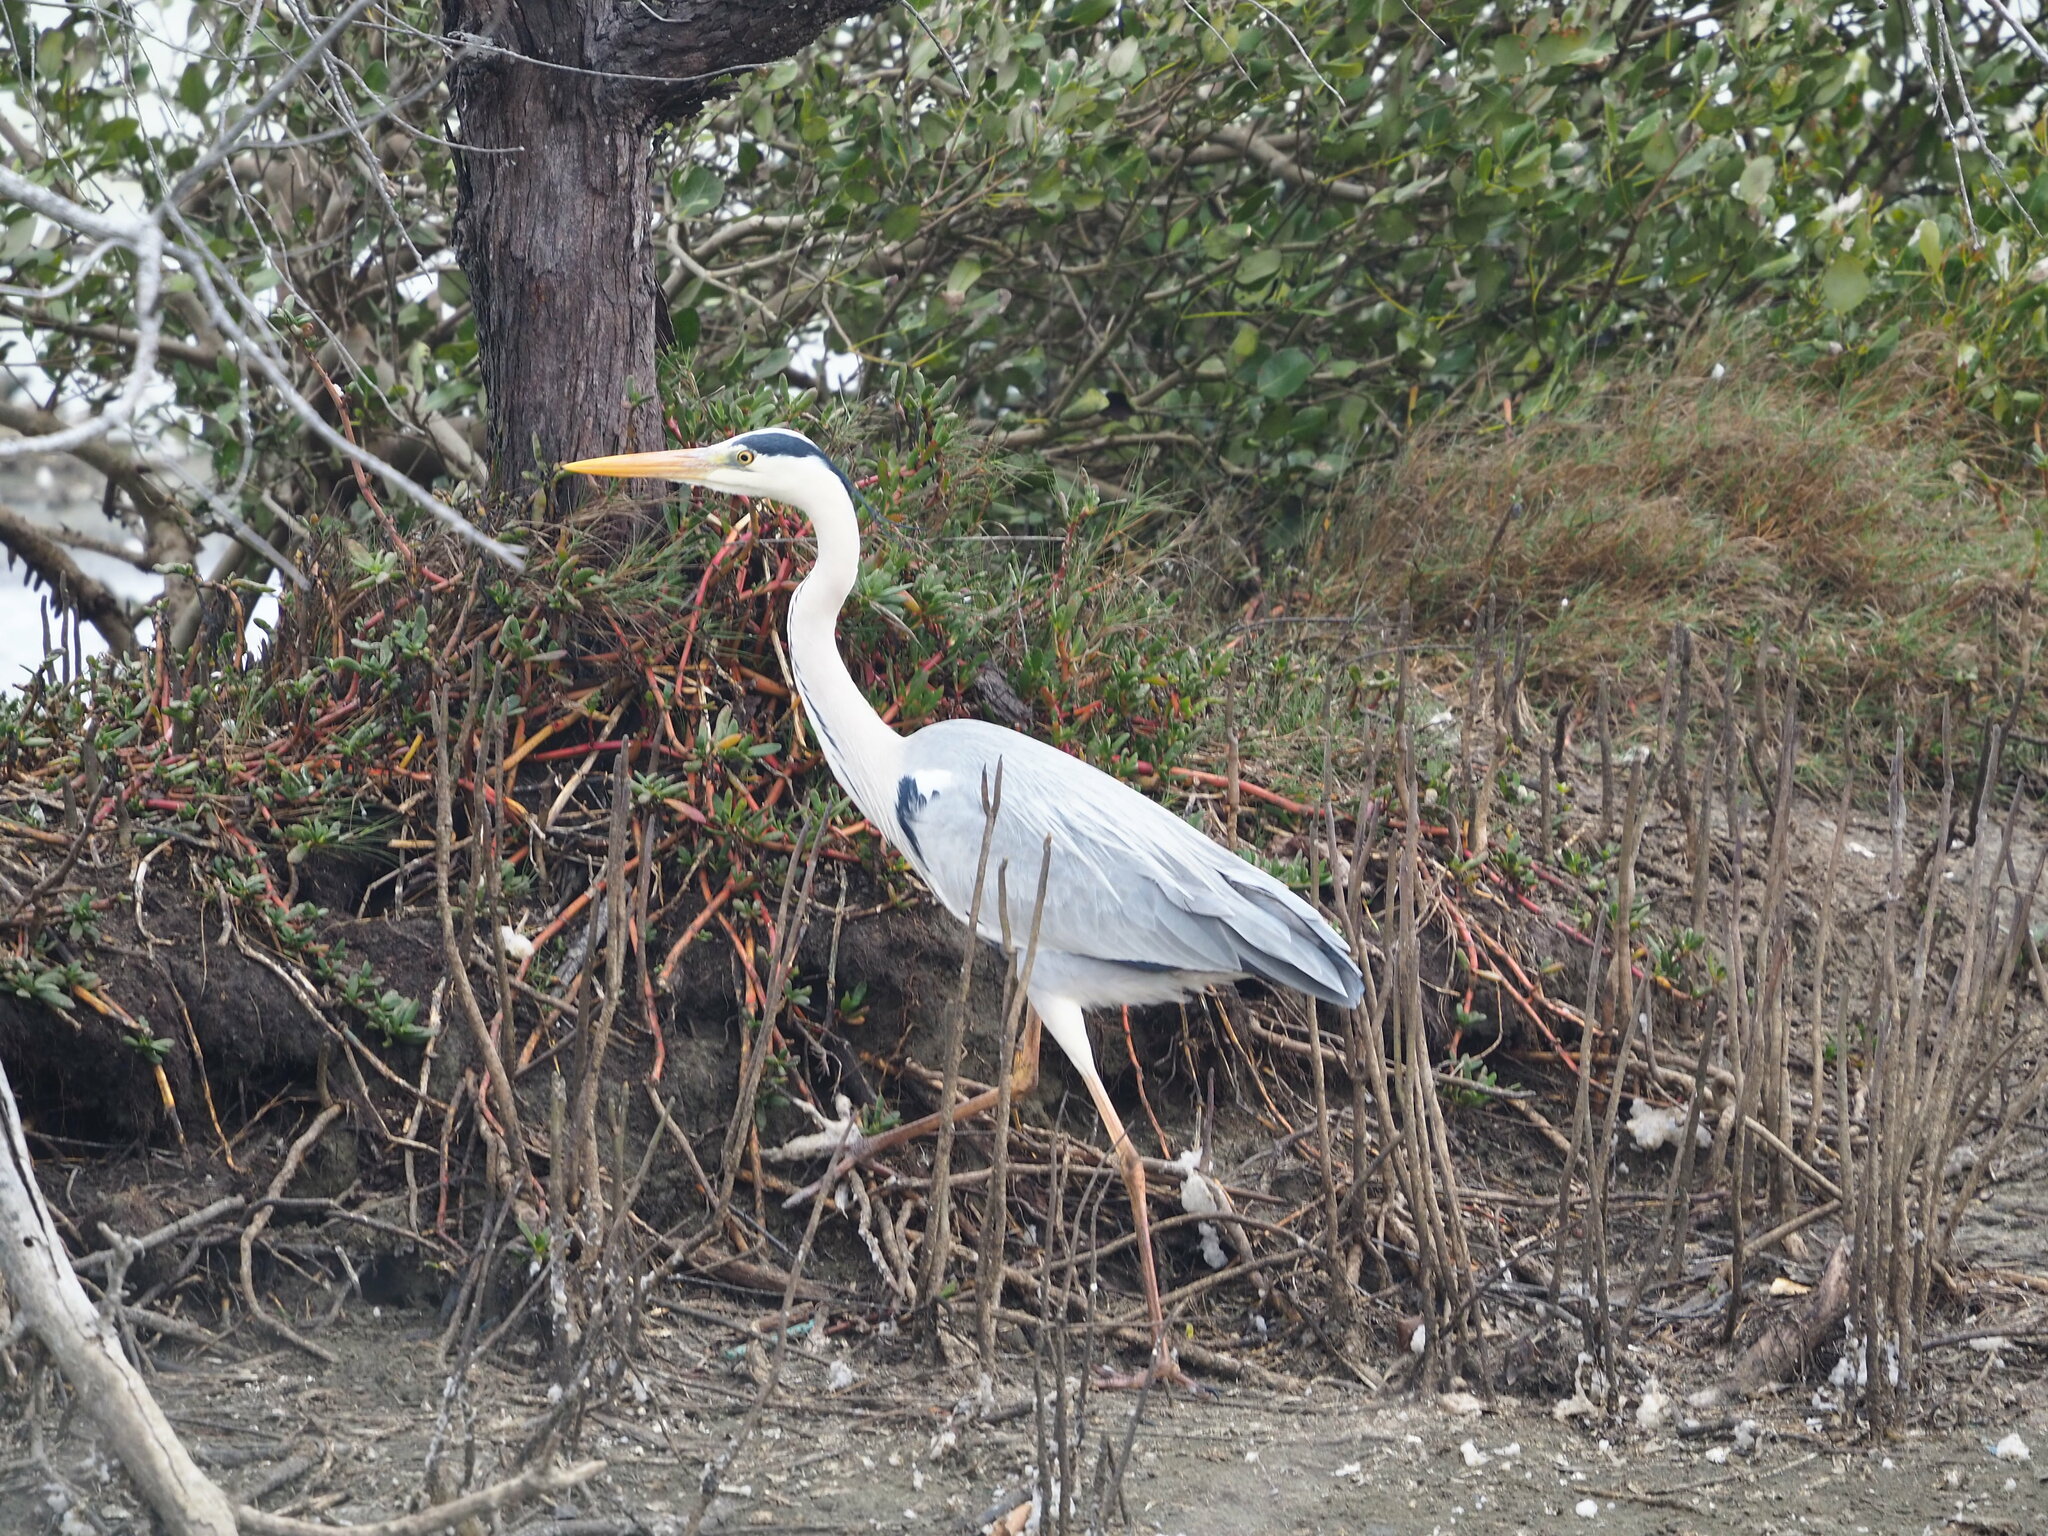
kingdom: Animalia
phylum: Chordata
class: Aves
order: Pelecaniformes
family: Ardeidae
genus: Ardea
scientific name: Ardea cinerea
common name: Grey heron
